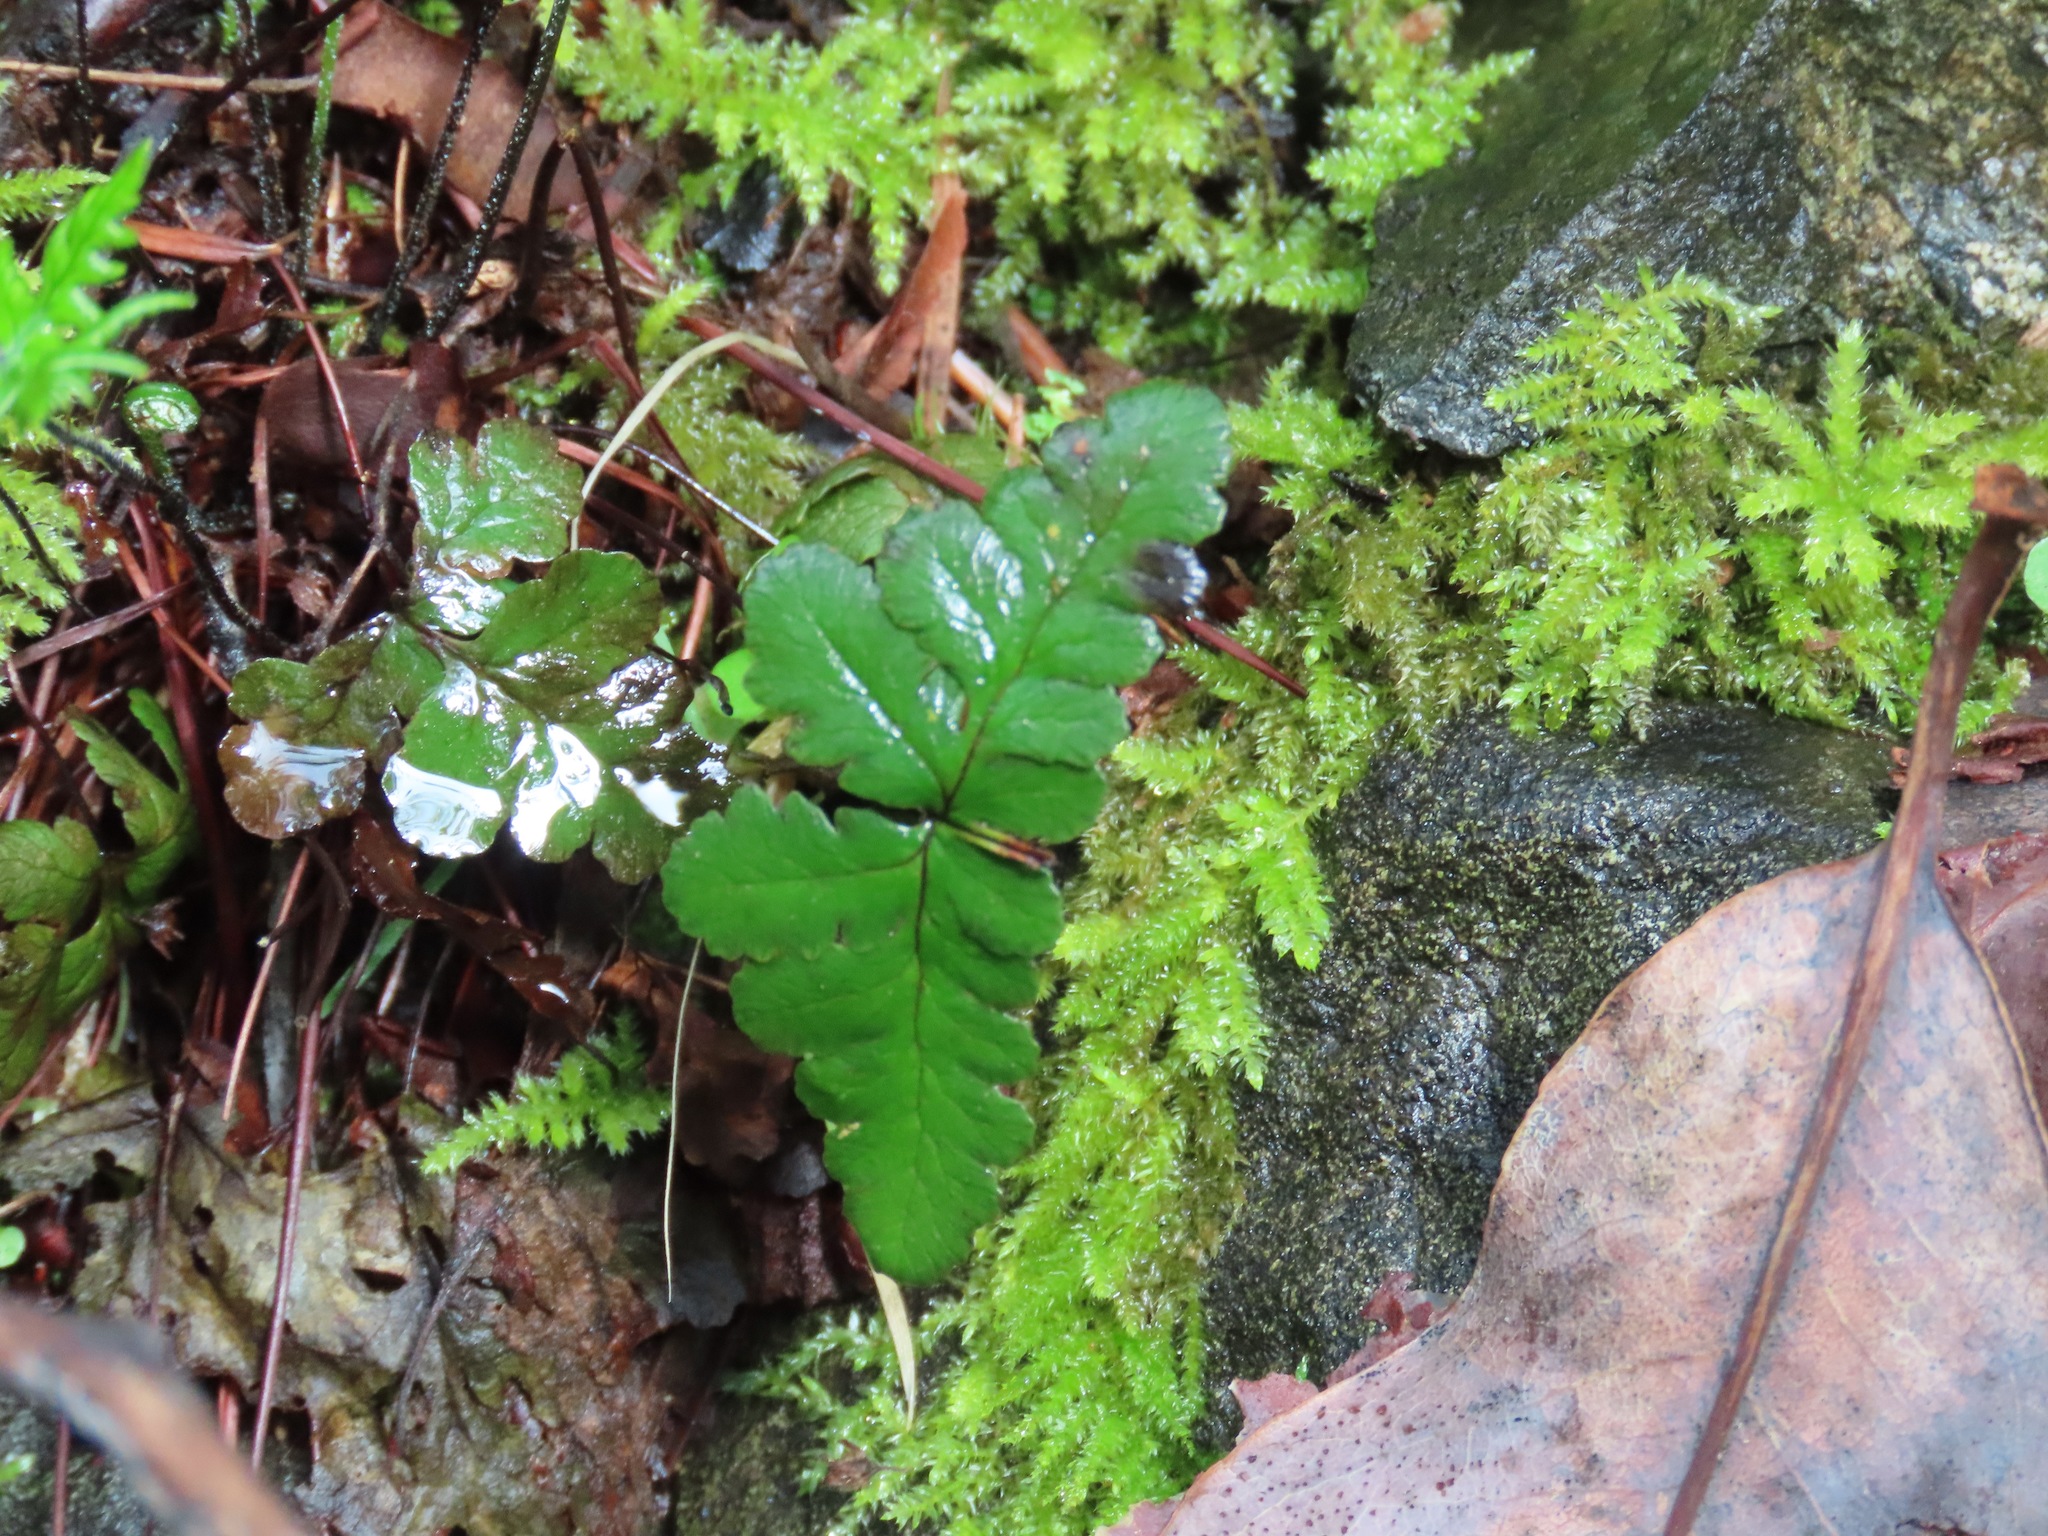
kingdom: Plantae
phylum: Tracheophyta
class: Polypodiopsida
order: Polypodiales
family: Pteridaceae
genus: Pentagramma
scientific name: Pentagramma triangularis
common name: Gold fern
